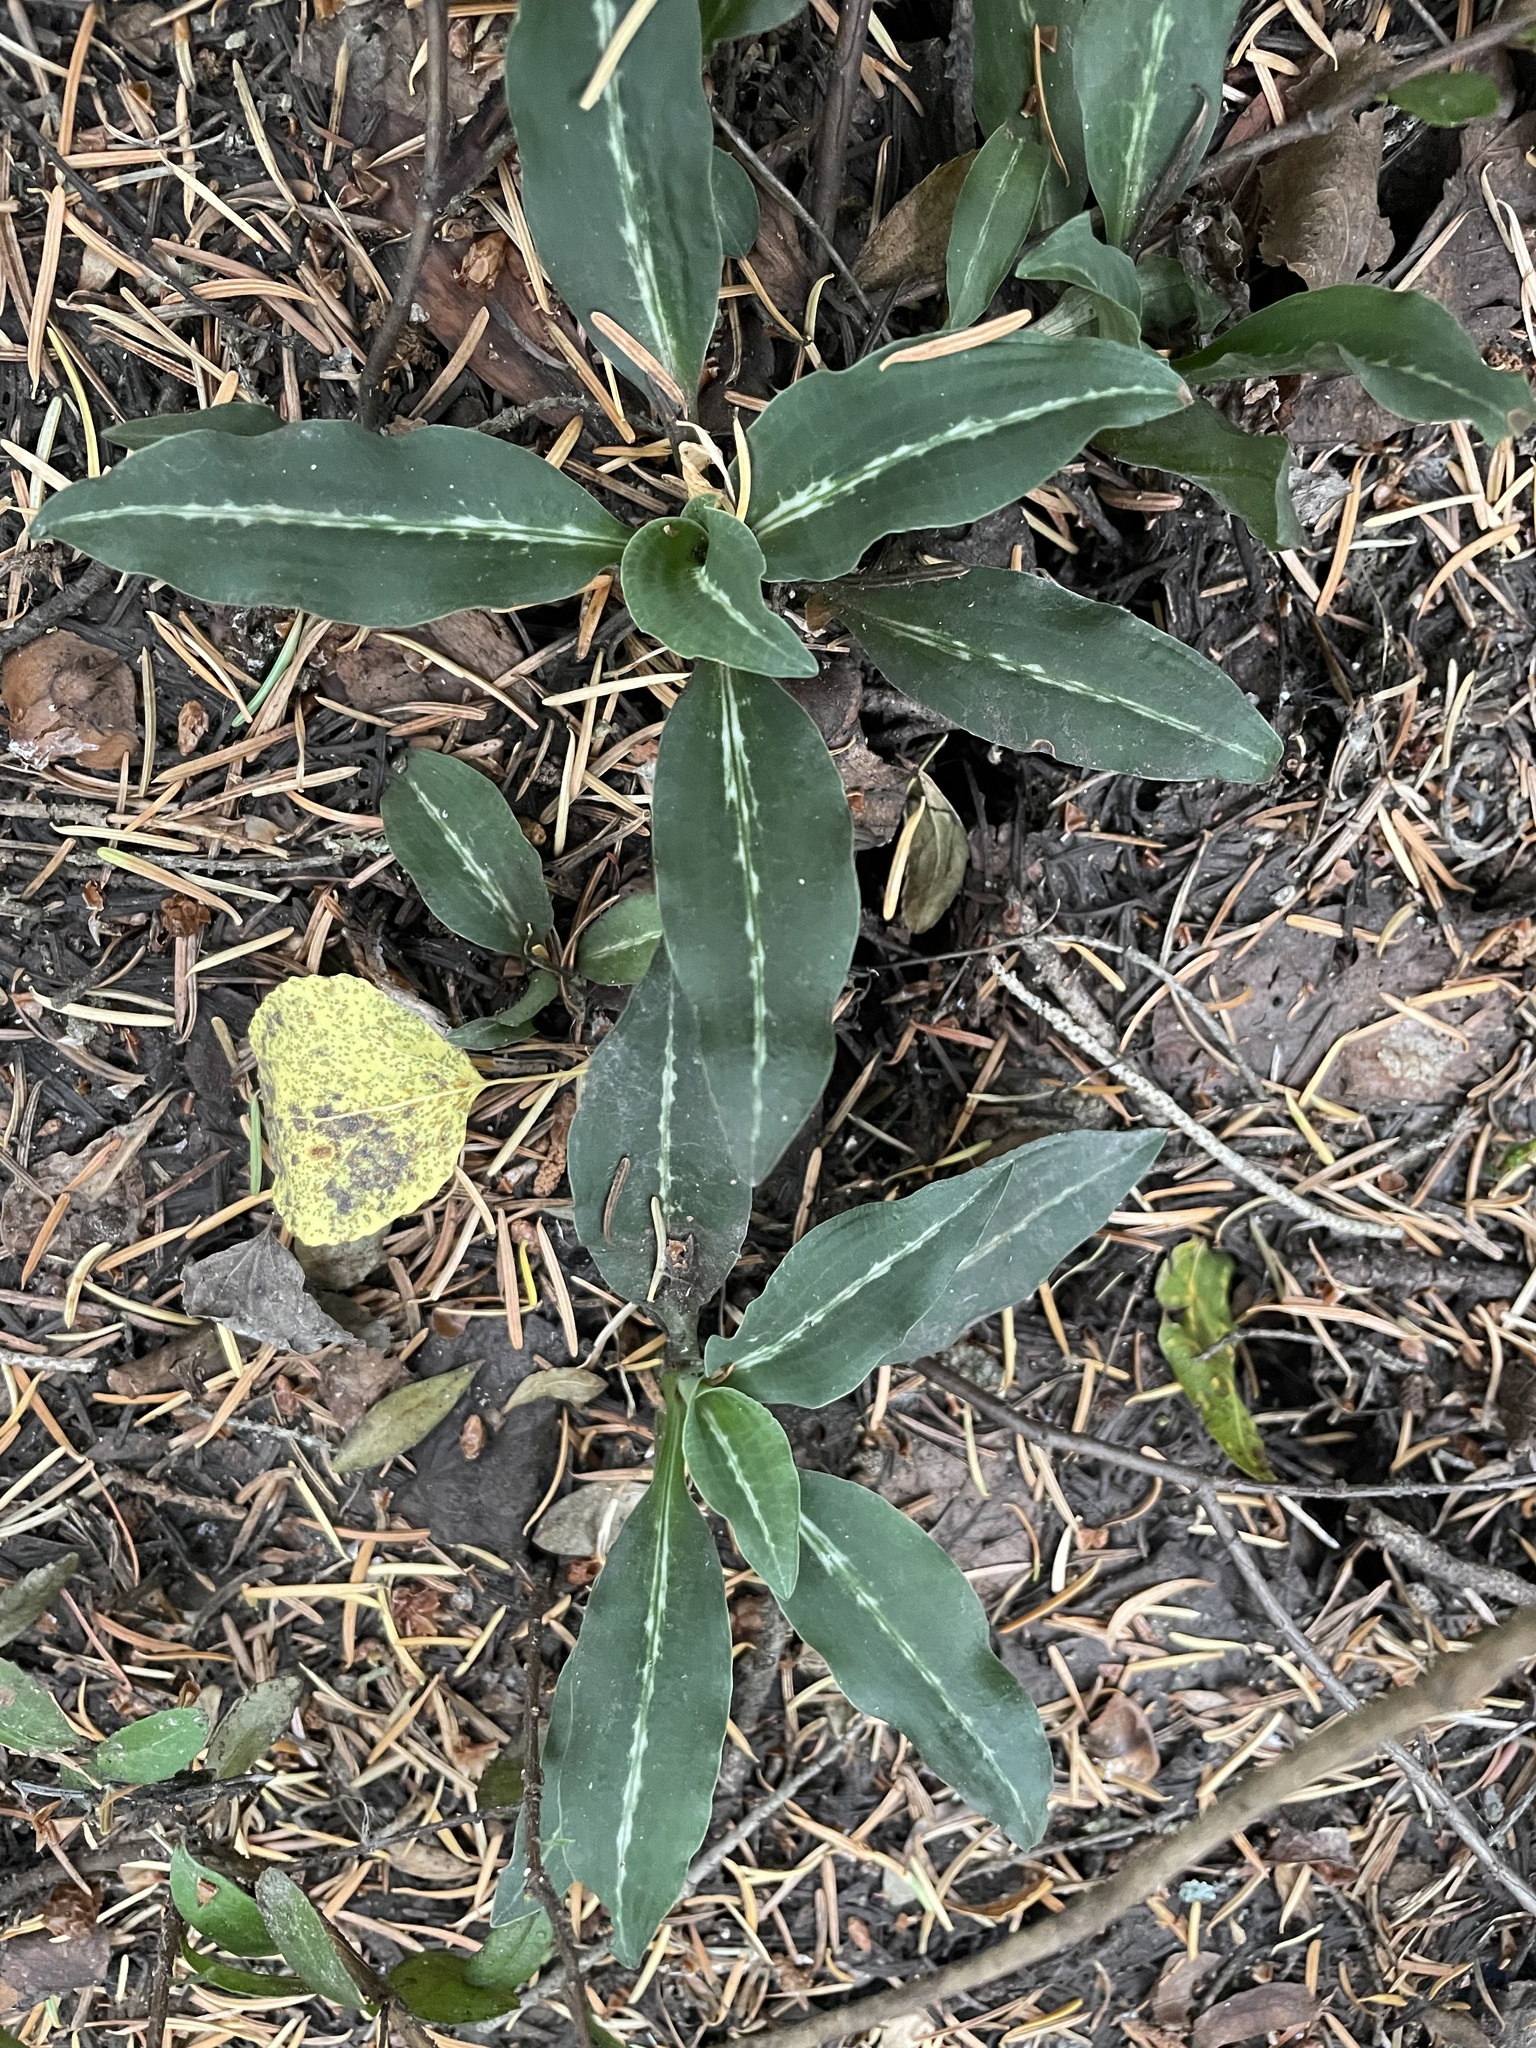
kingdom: Plantae
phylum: Tracheophyta
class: Liliopsida
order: Asparagales
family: Orchidaceae
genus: Goodyera
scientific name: Goodyera oblongifolia
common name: Giant rattlesnake-plantain
